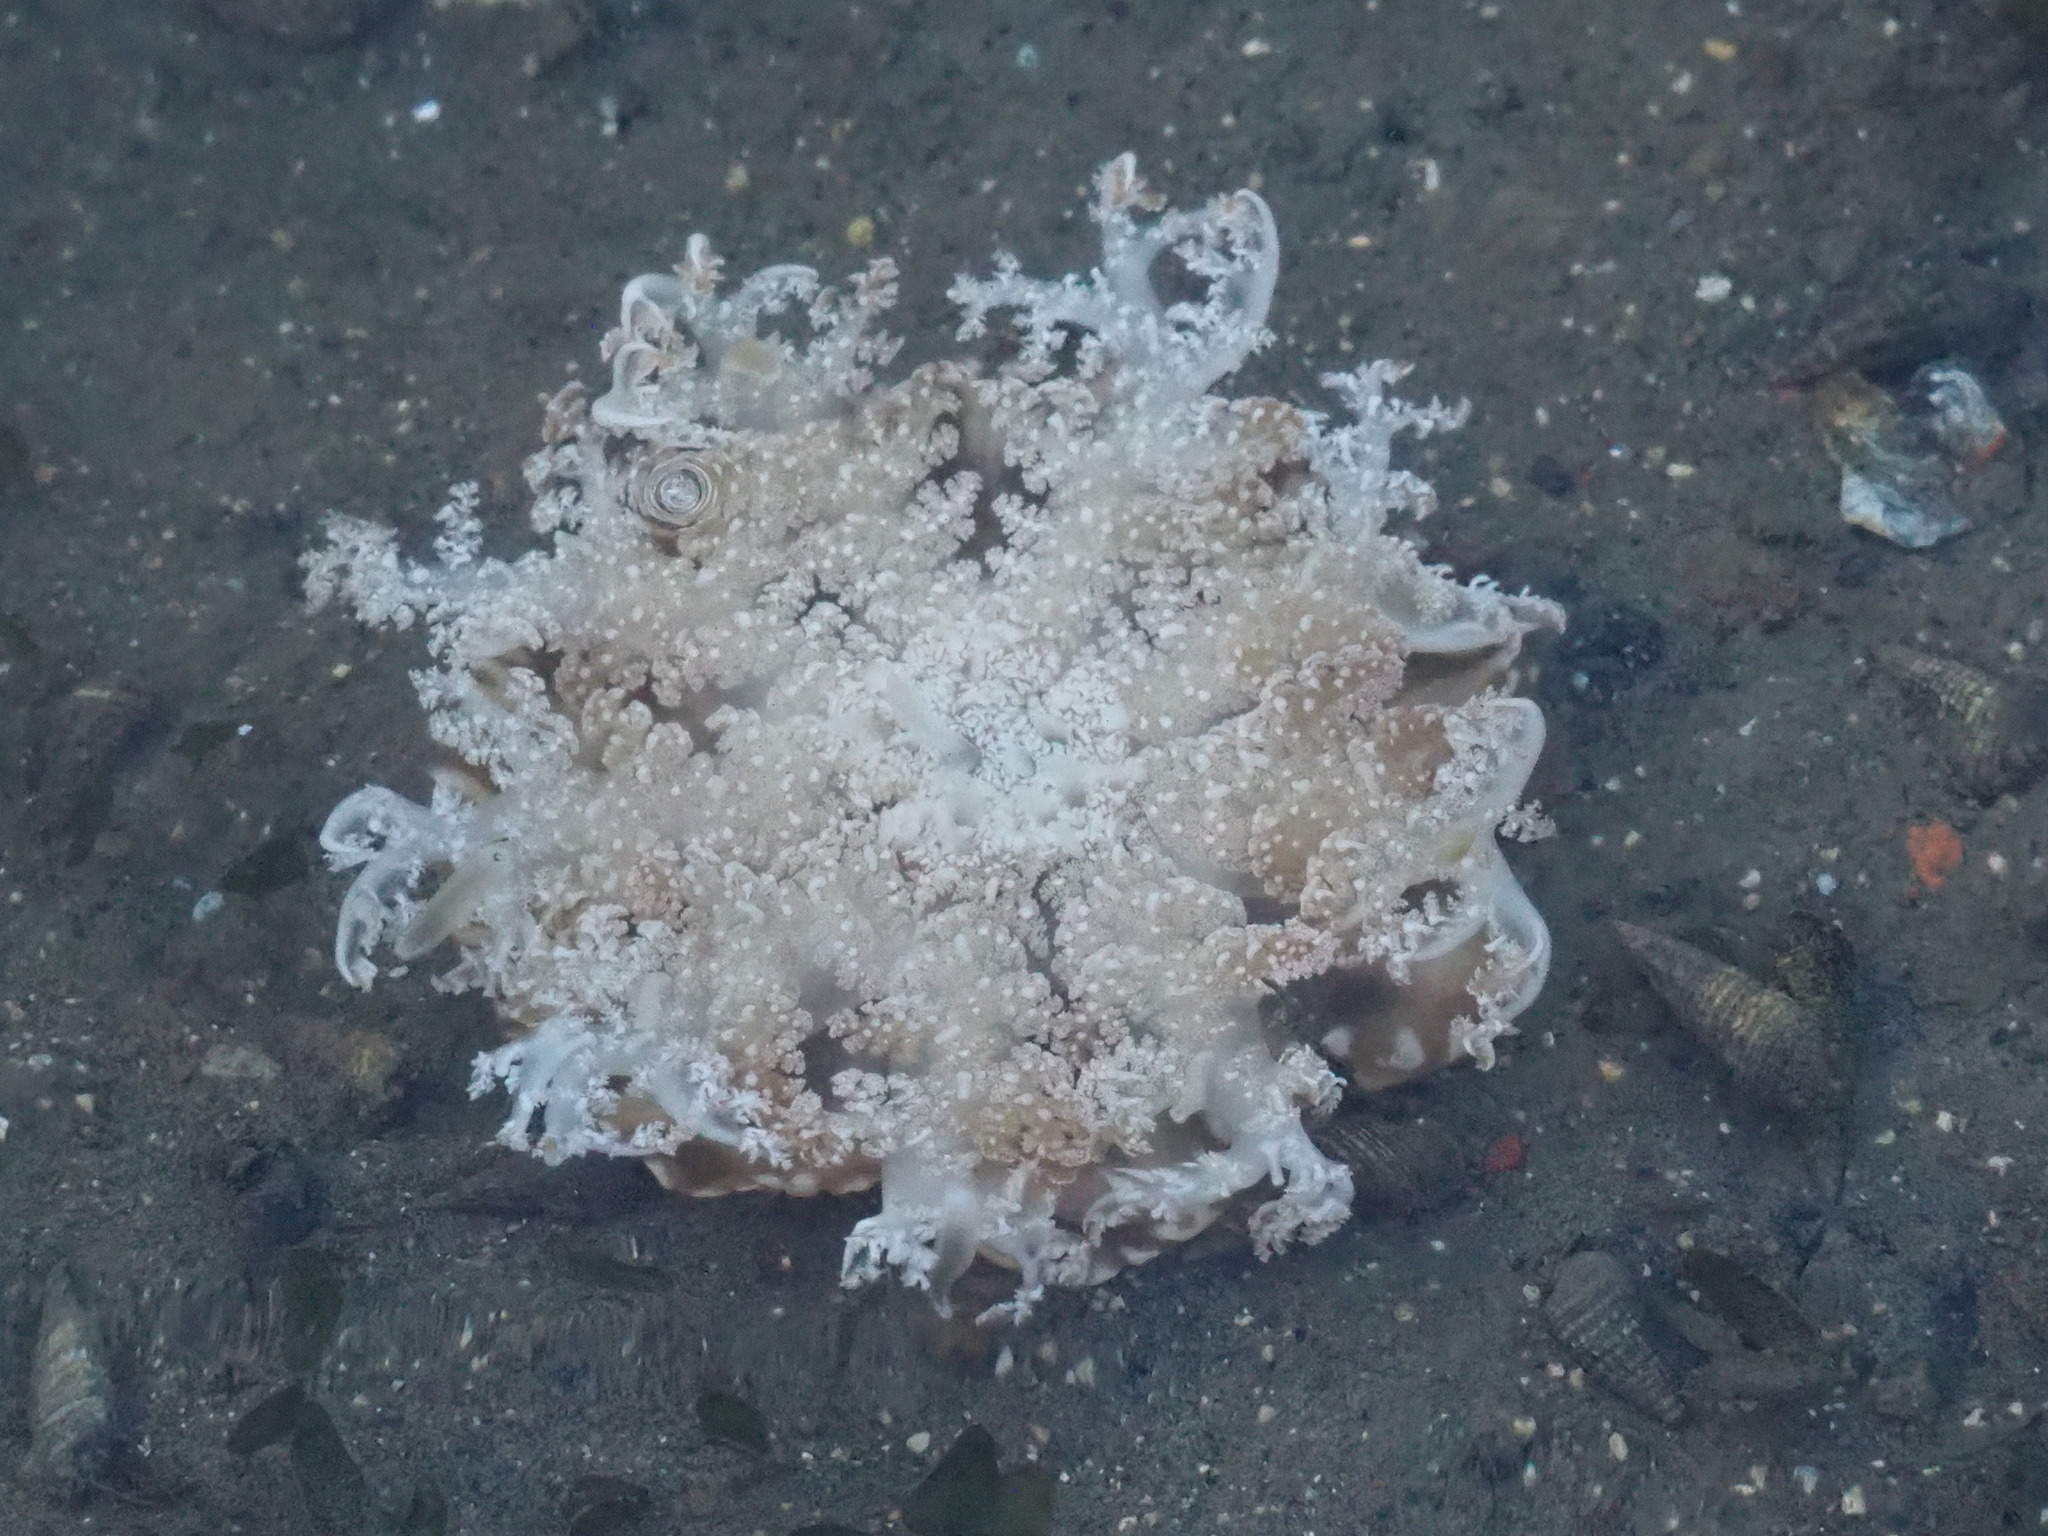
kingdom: Animalia
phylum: Cnidaria
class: Scyphozoa
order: Rhizostomeae
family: Cassiopeidae
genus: Cassiopea
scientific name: Cassiopea andromeda
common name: Upside-down jellyfish
